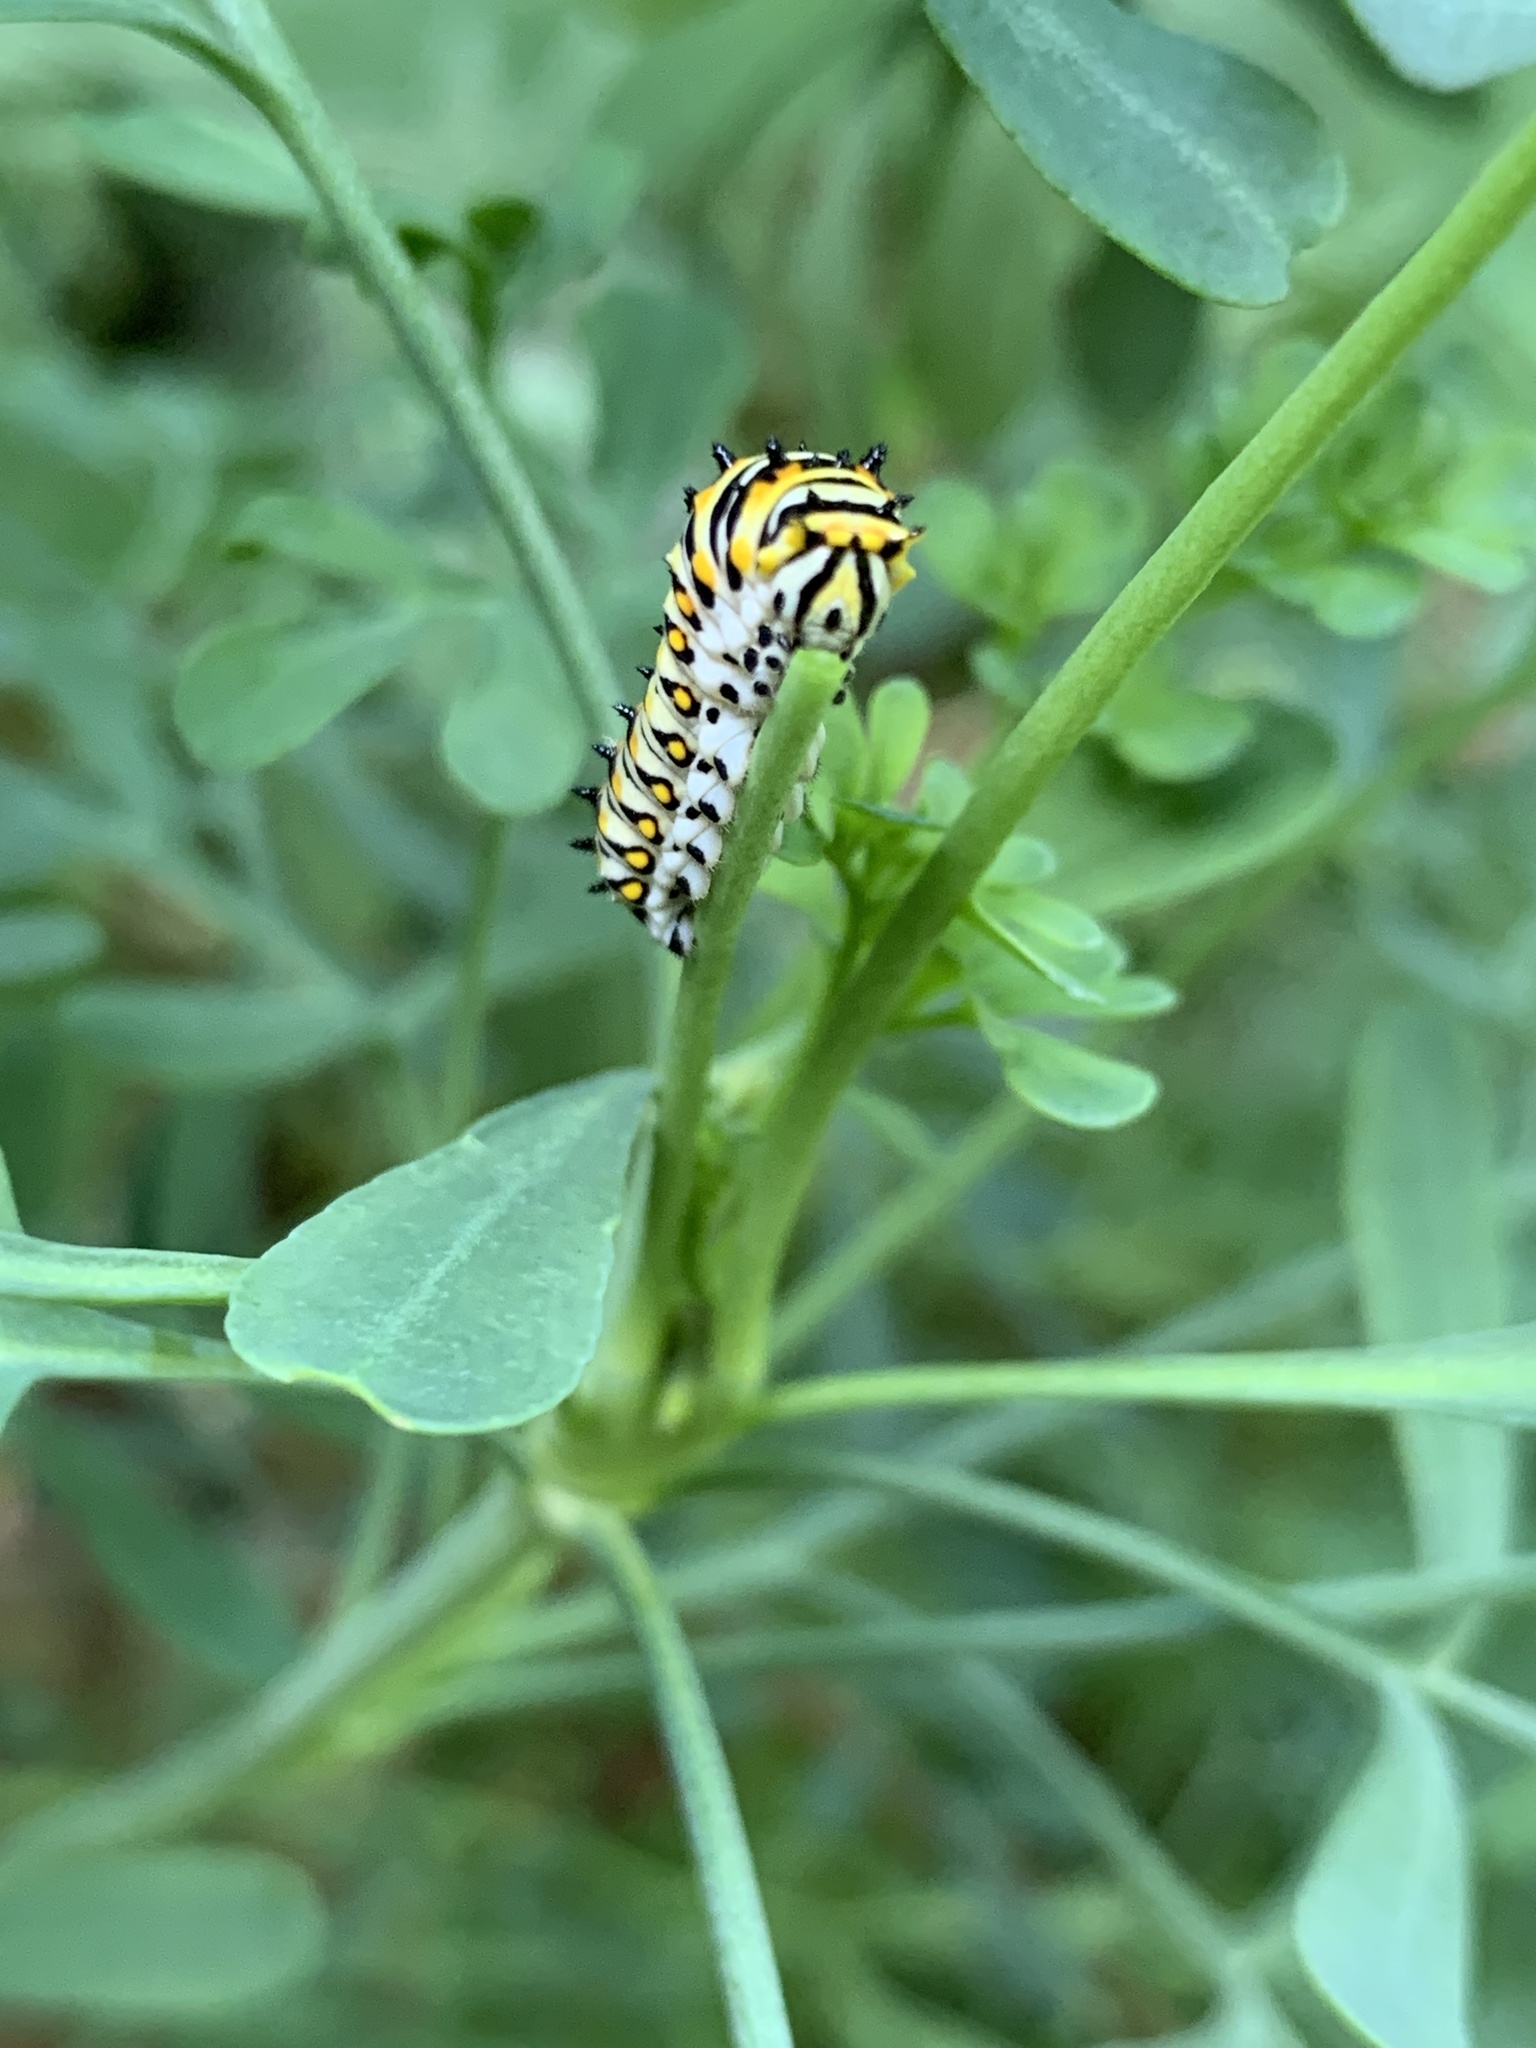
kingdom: Animalia
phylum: Arthropoda
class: Insecta
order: Lepidoptera
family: Papilionidae
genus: Papilio
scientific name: Papilio polyxenes
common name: Black swallowtail
